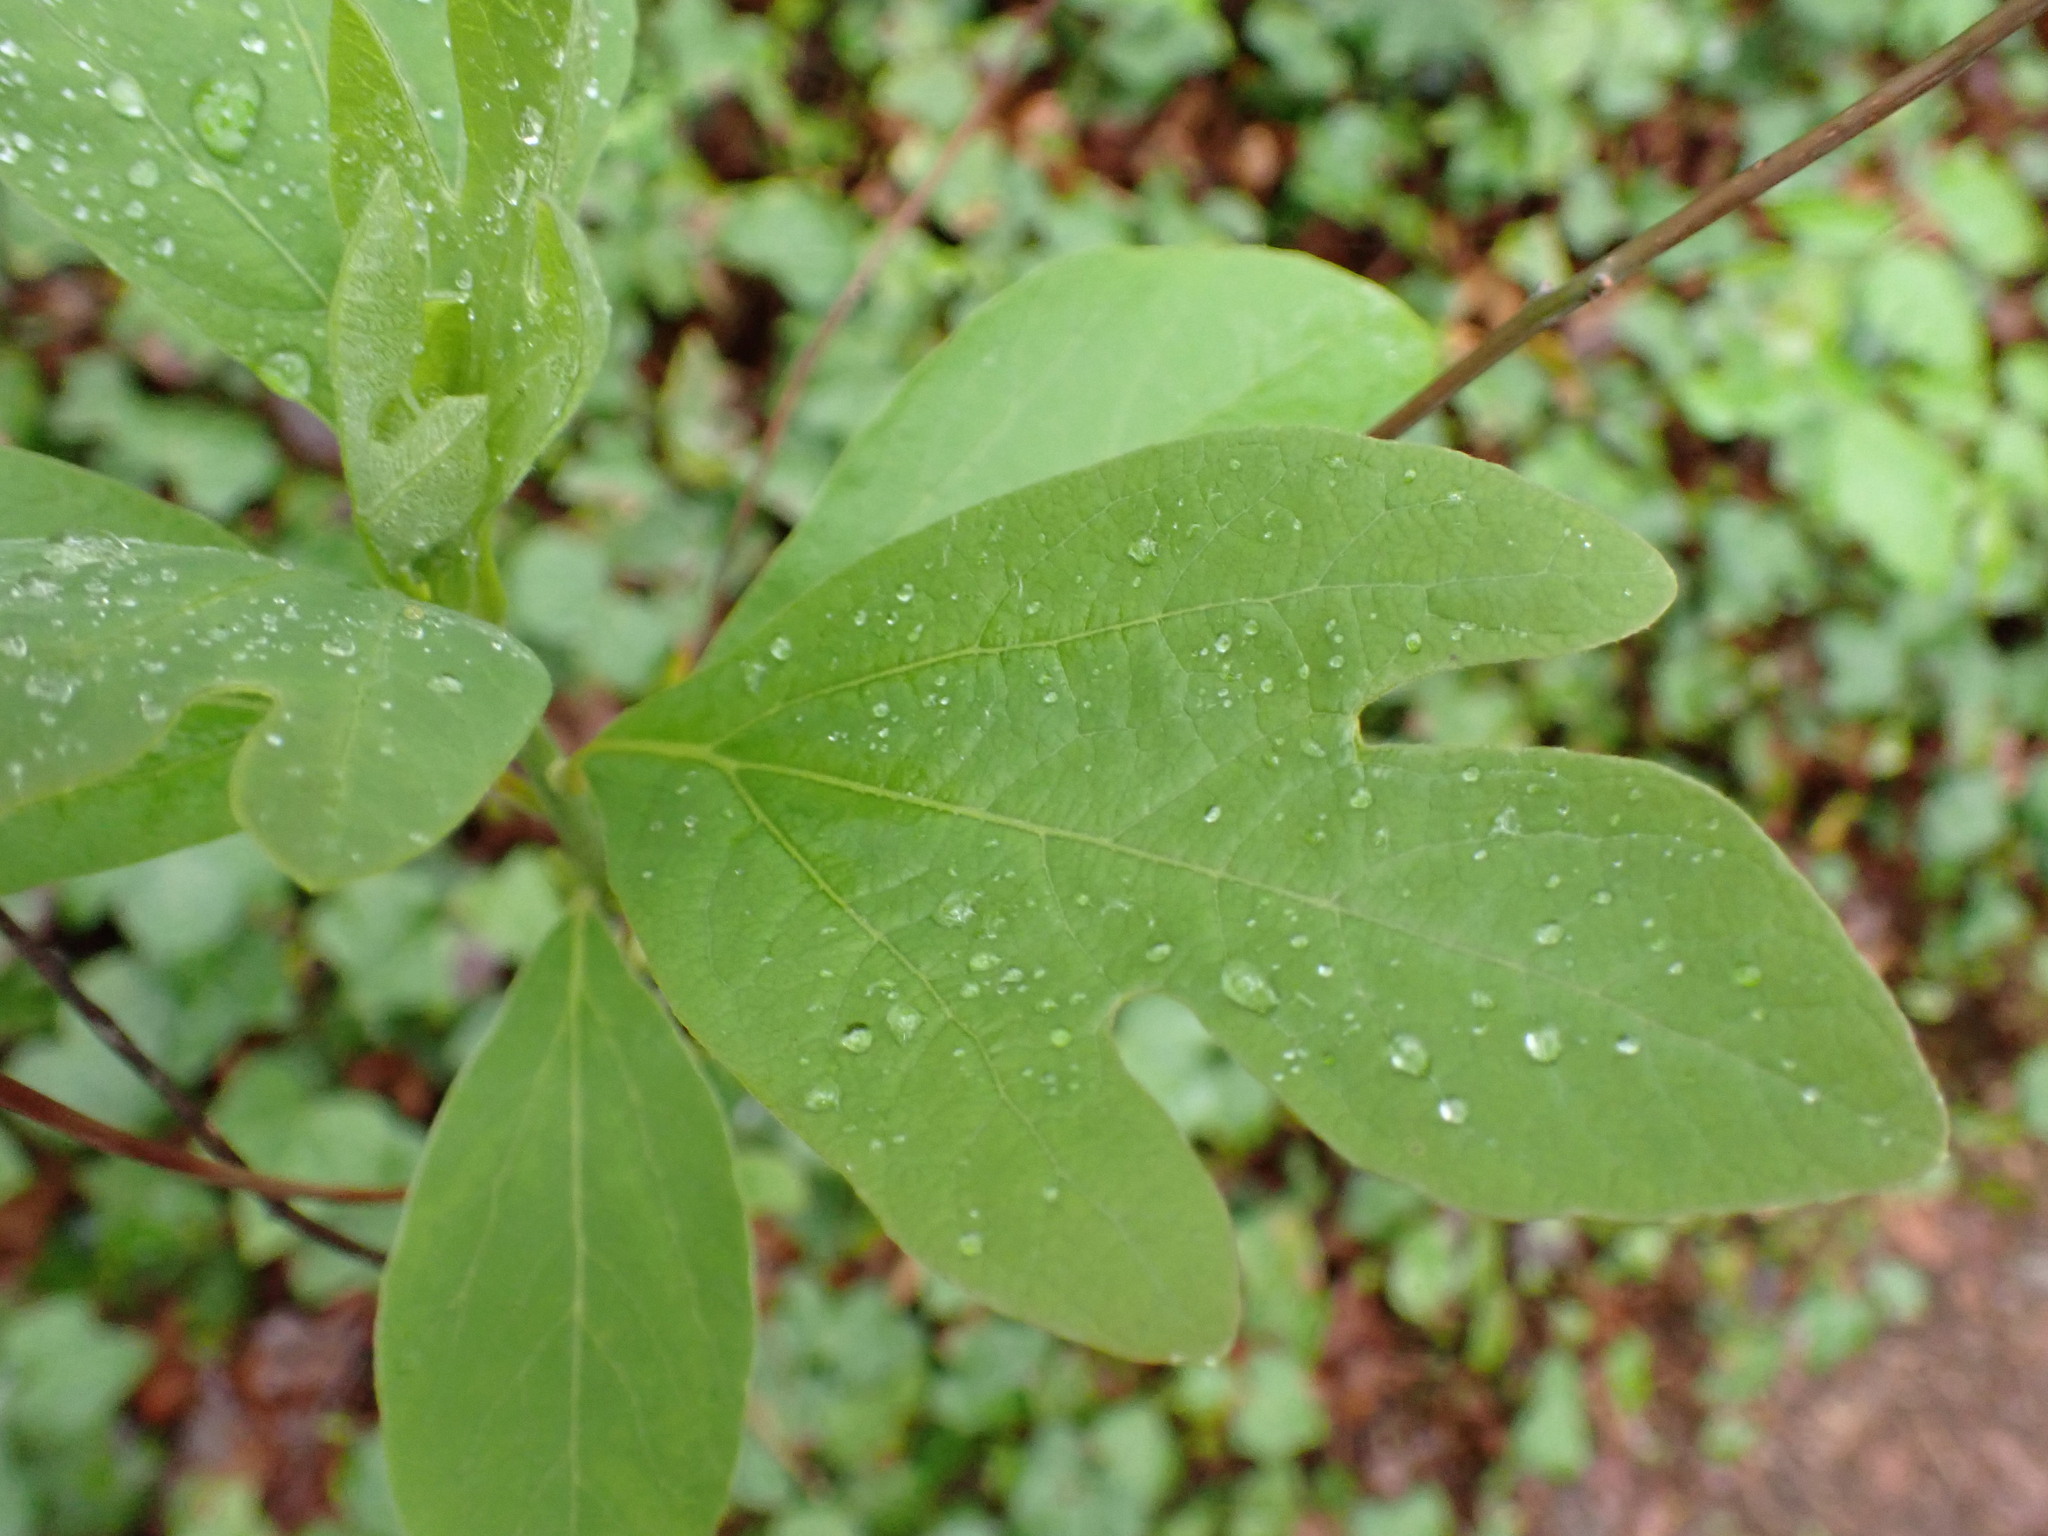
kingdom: Plantae
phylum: Tracheophyta
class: Magnoliopsida
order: Laurales
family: Lauraceae
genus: Sassafras
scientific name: Sassafras albidum
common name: Sassafras
